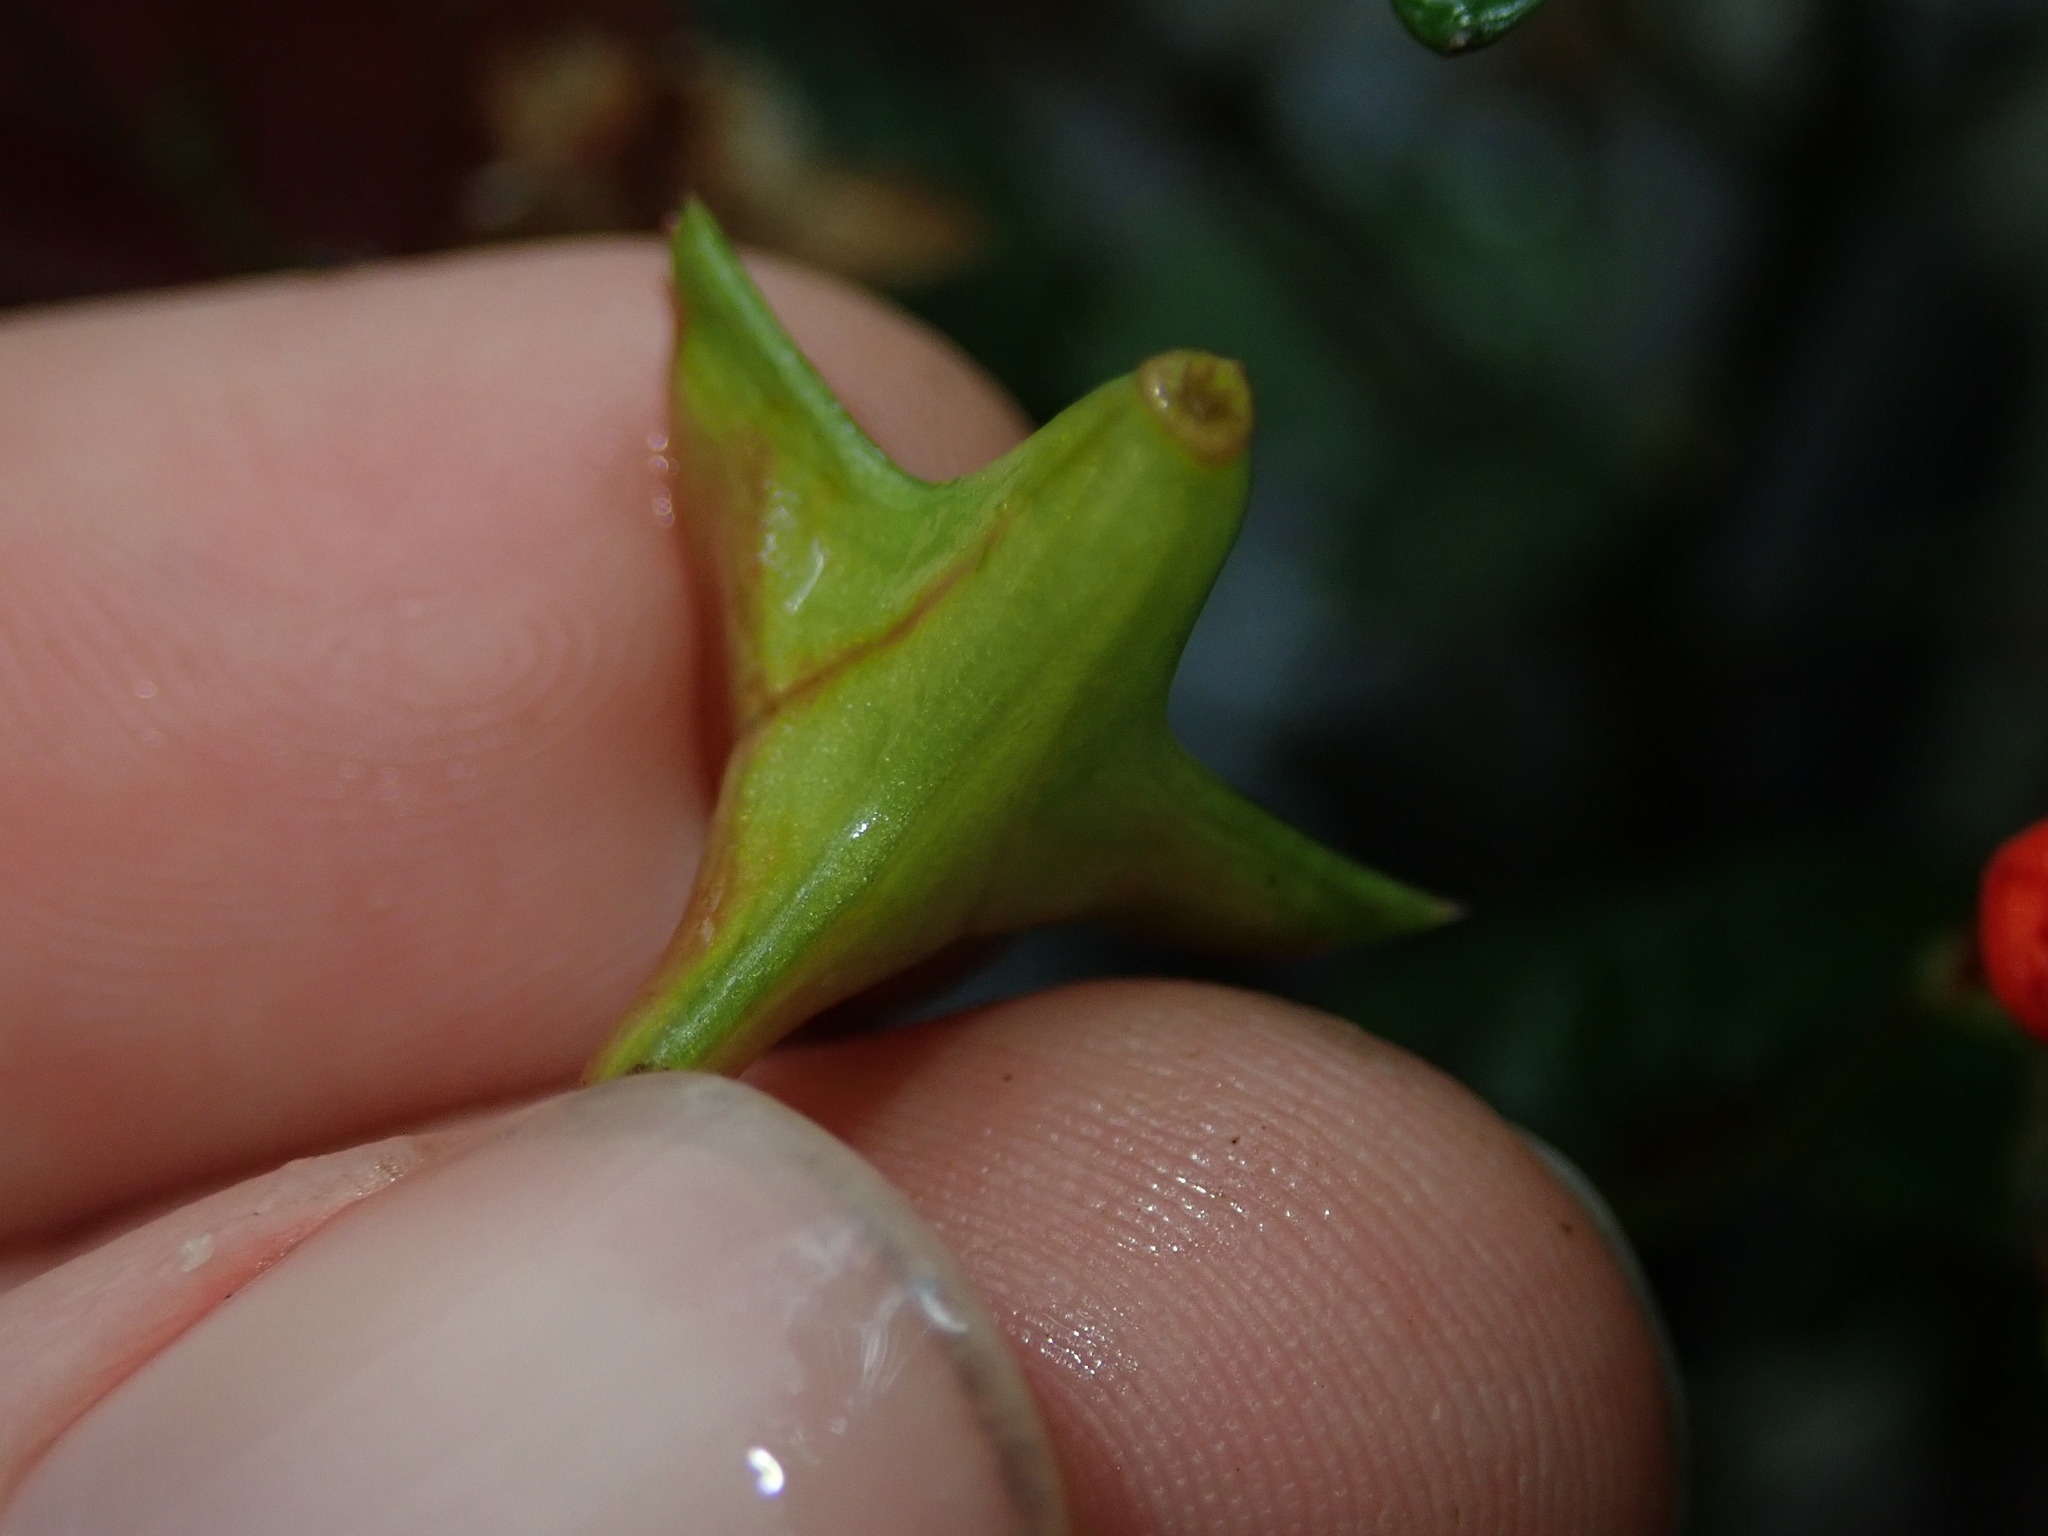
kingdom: Plantae
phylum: Tracheophyta
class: Magnoliopsida
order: Cucurbitales
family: Begoniaceae
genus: Begonia
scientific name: Begonia urticae
